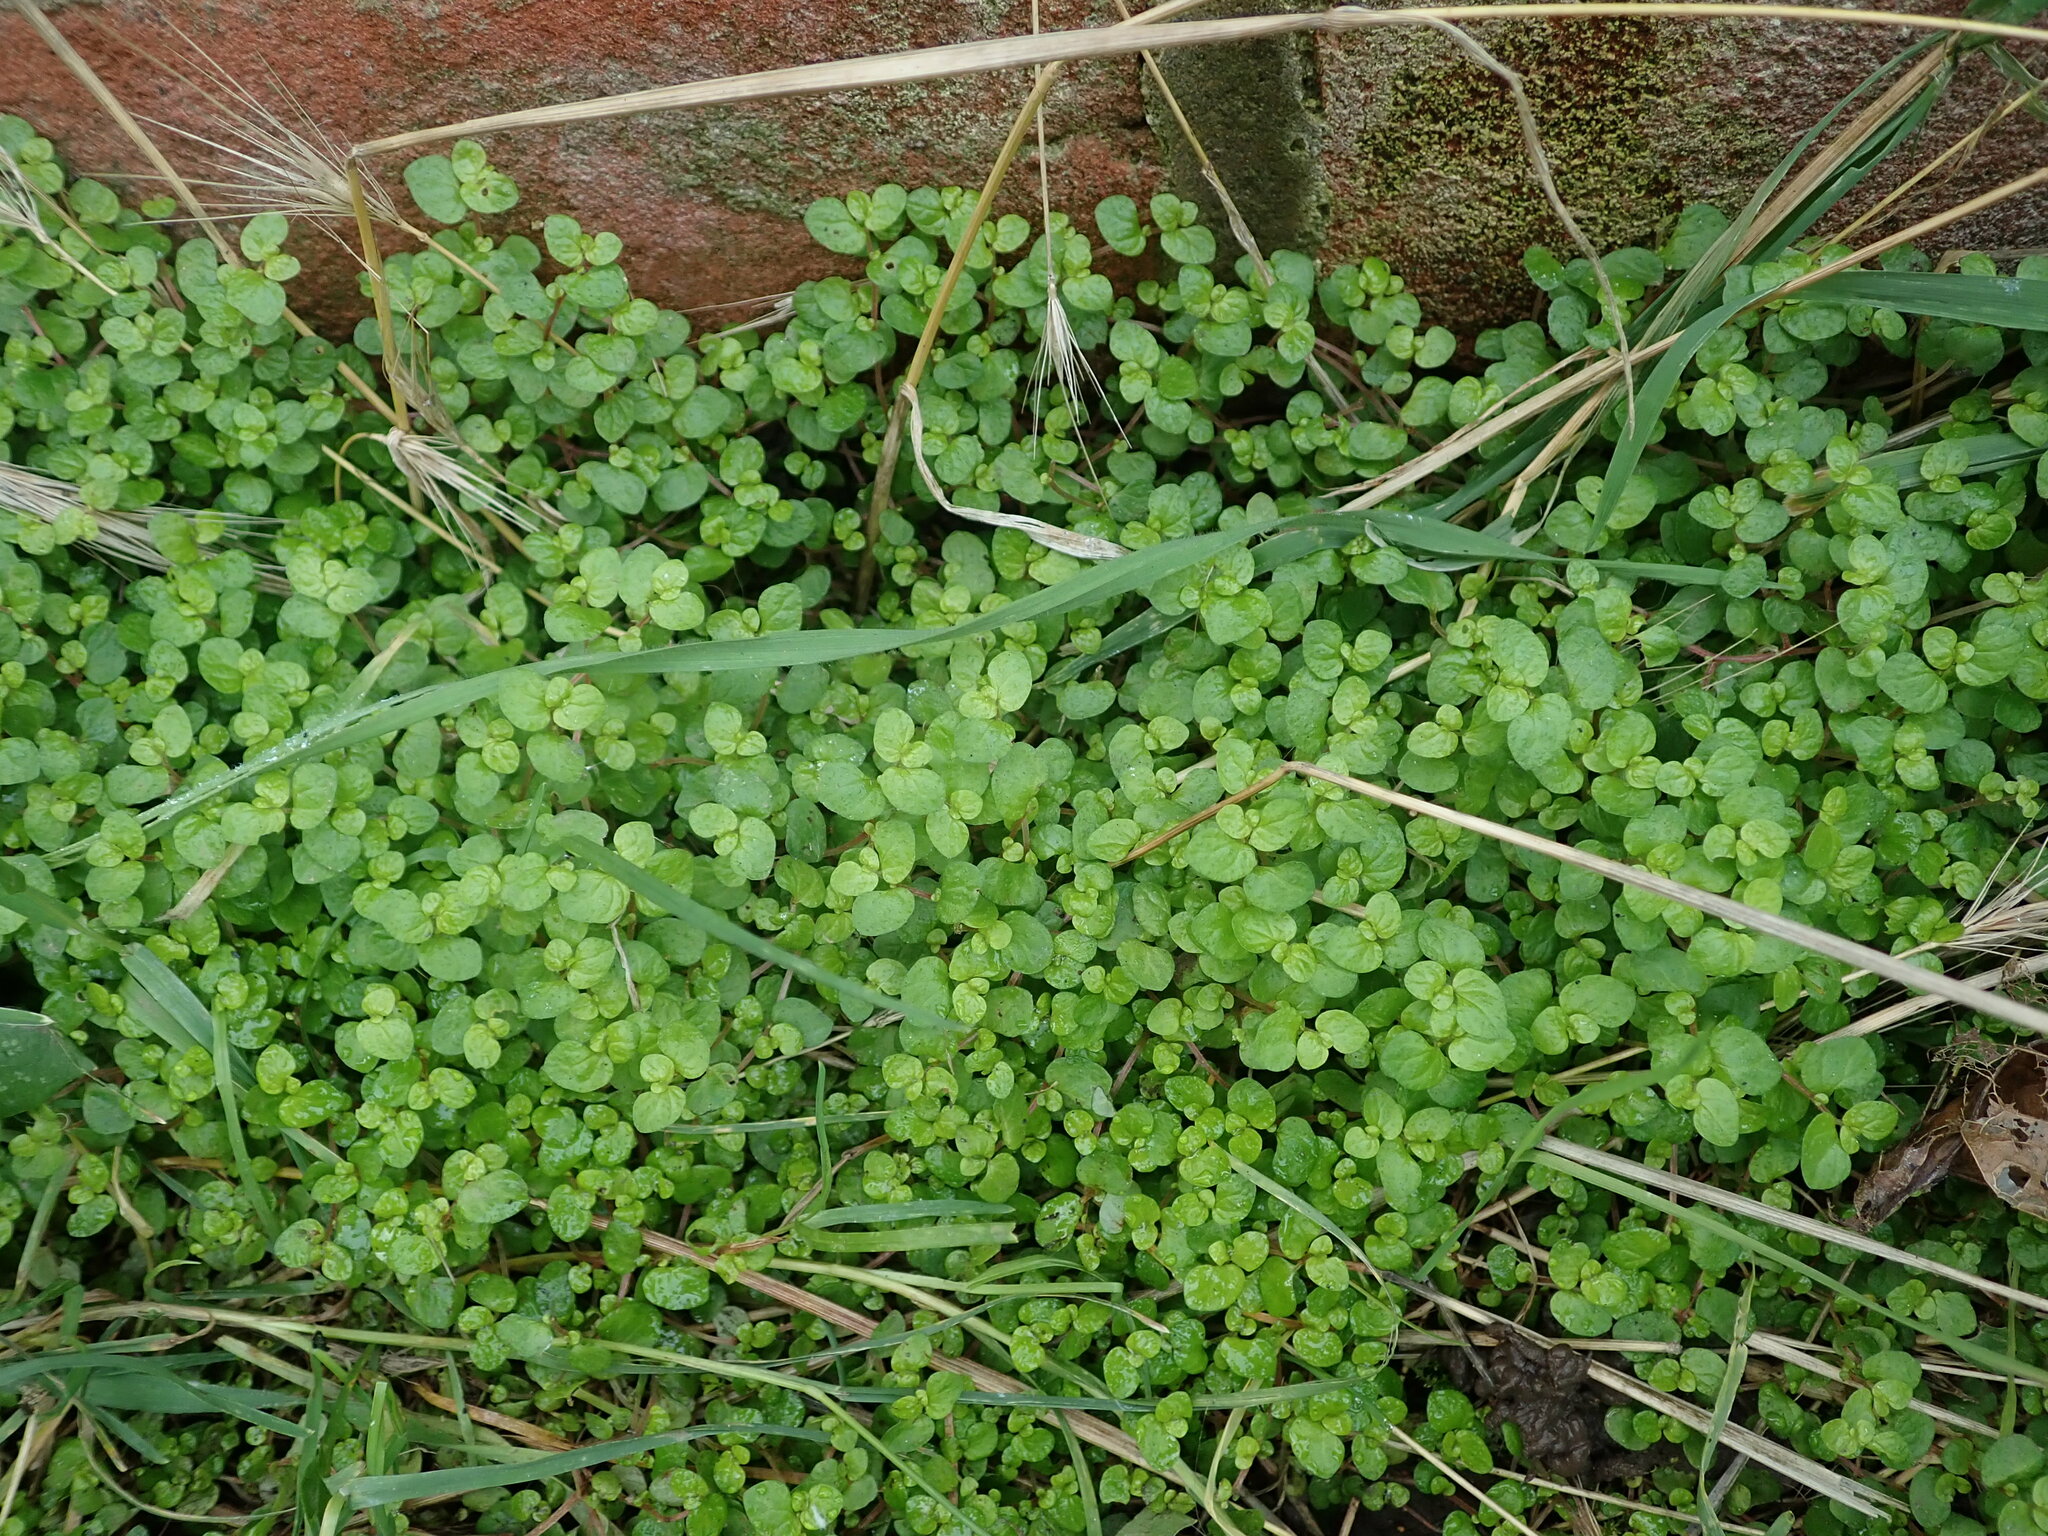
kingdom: Plantae
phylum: Tracheophyta
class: Magnoliopsida
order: Rosales
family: Urticaceae
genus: Soleirolia
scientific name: Soleirolia soleirolii
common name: Mind-your-own-business
